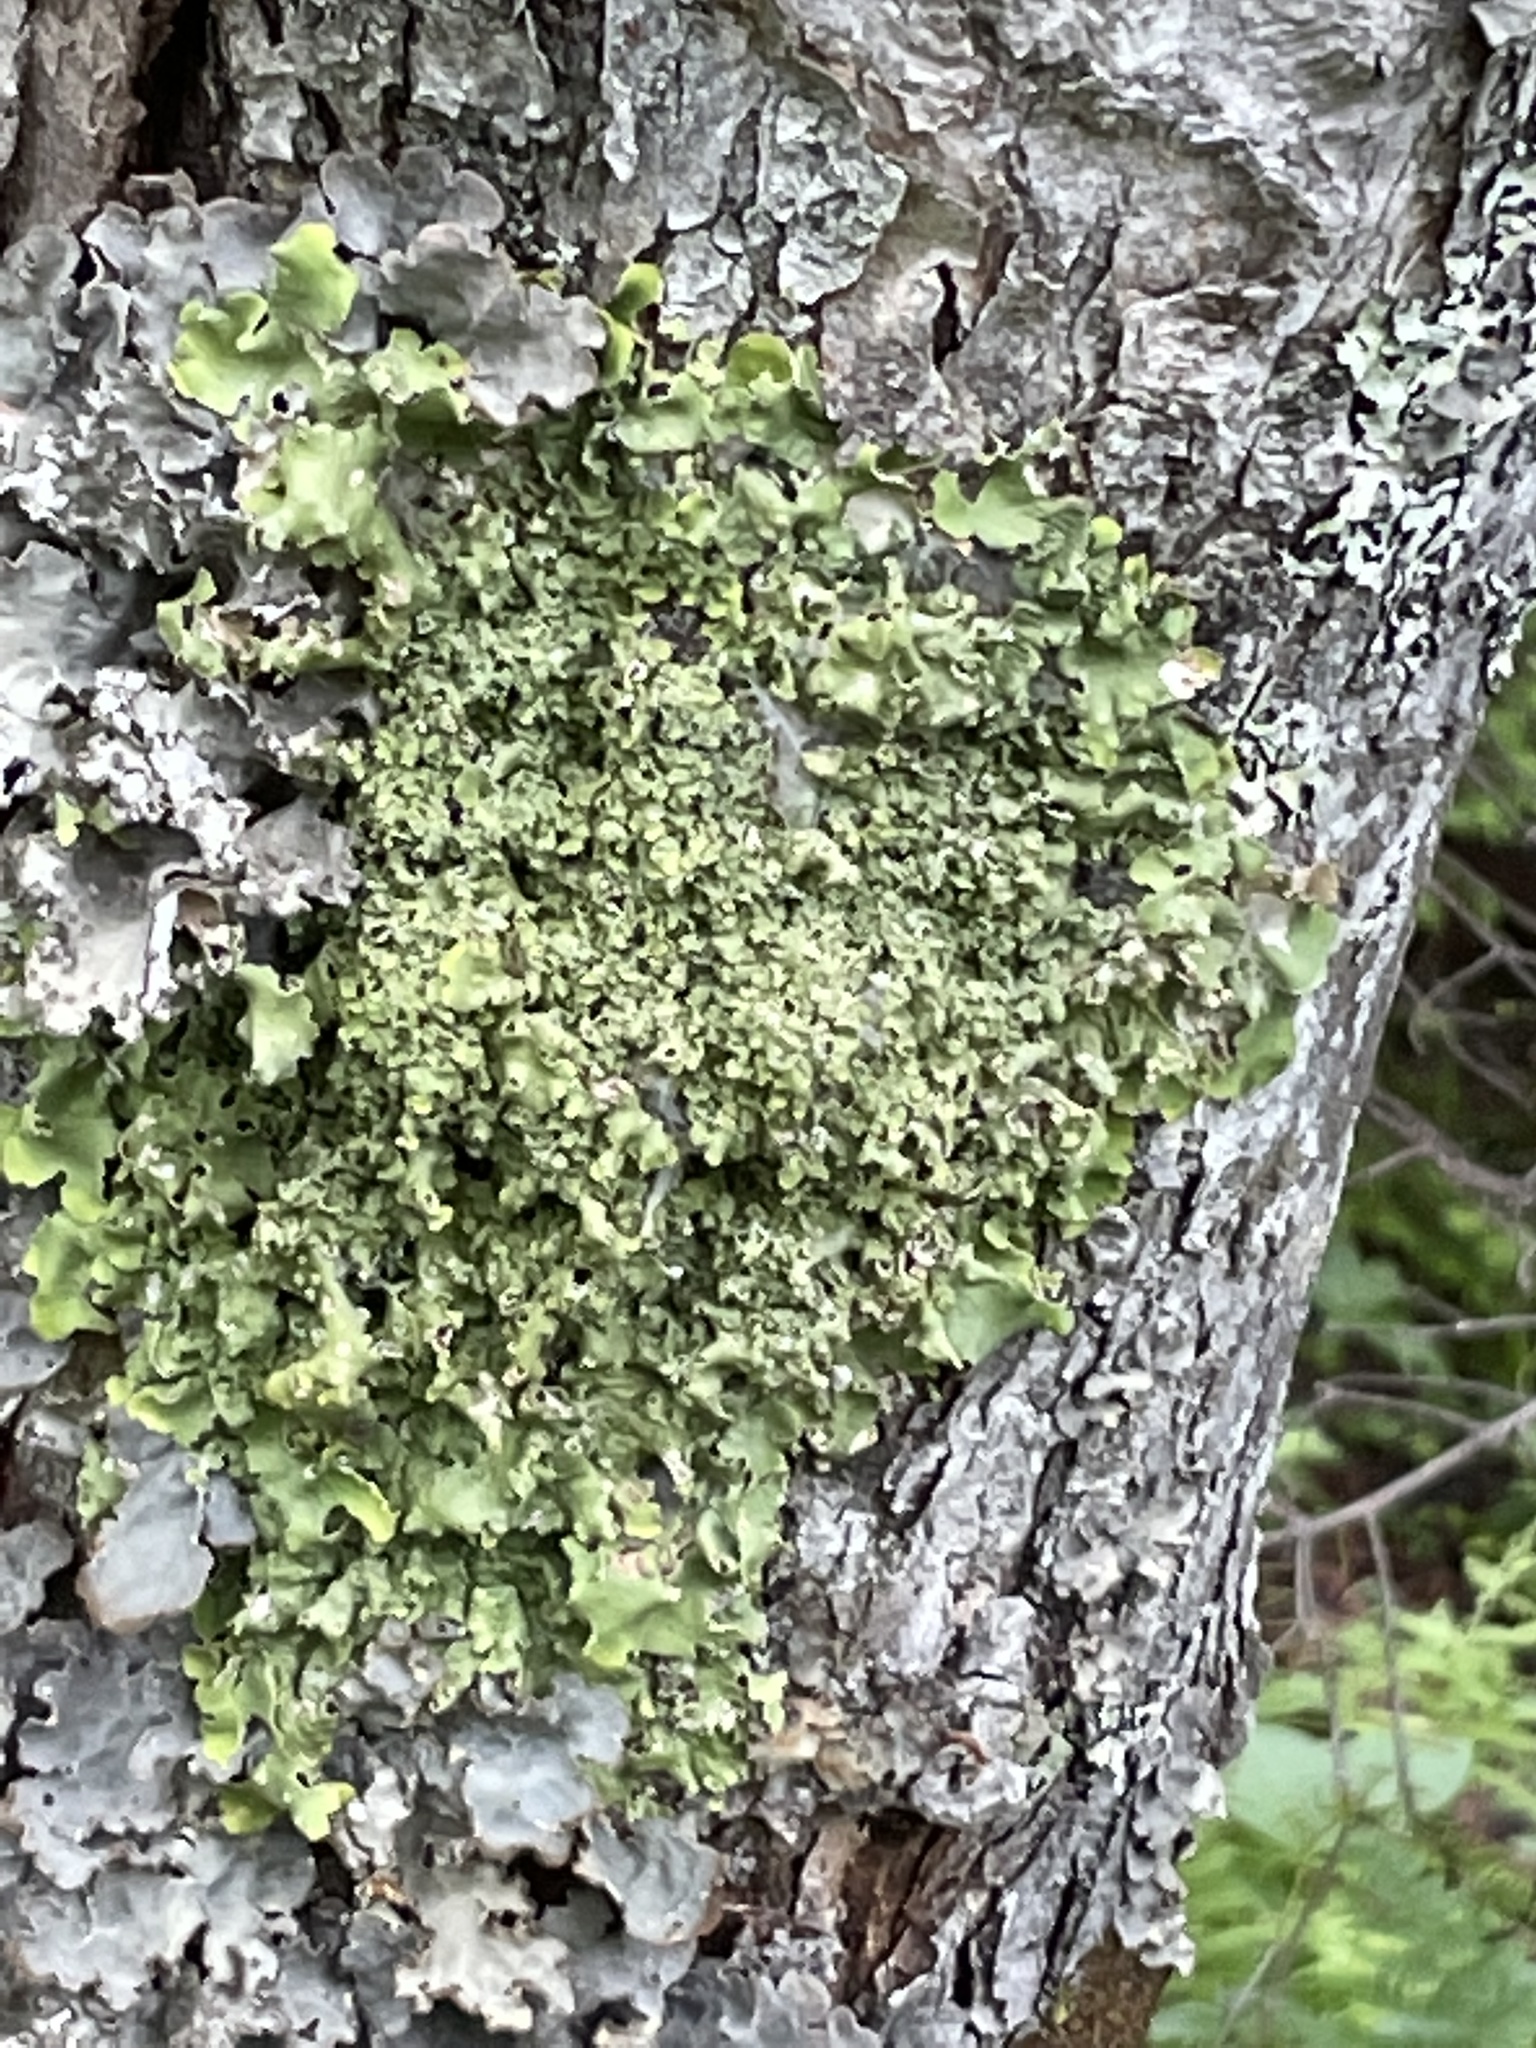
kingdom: Fungi
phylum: Ascomycota
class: Lecanoromycetes
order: Peltigerales
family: Lobariaceae
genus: Lobaria
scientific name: Lobaria pulmonaria
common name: Lungwort
